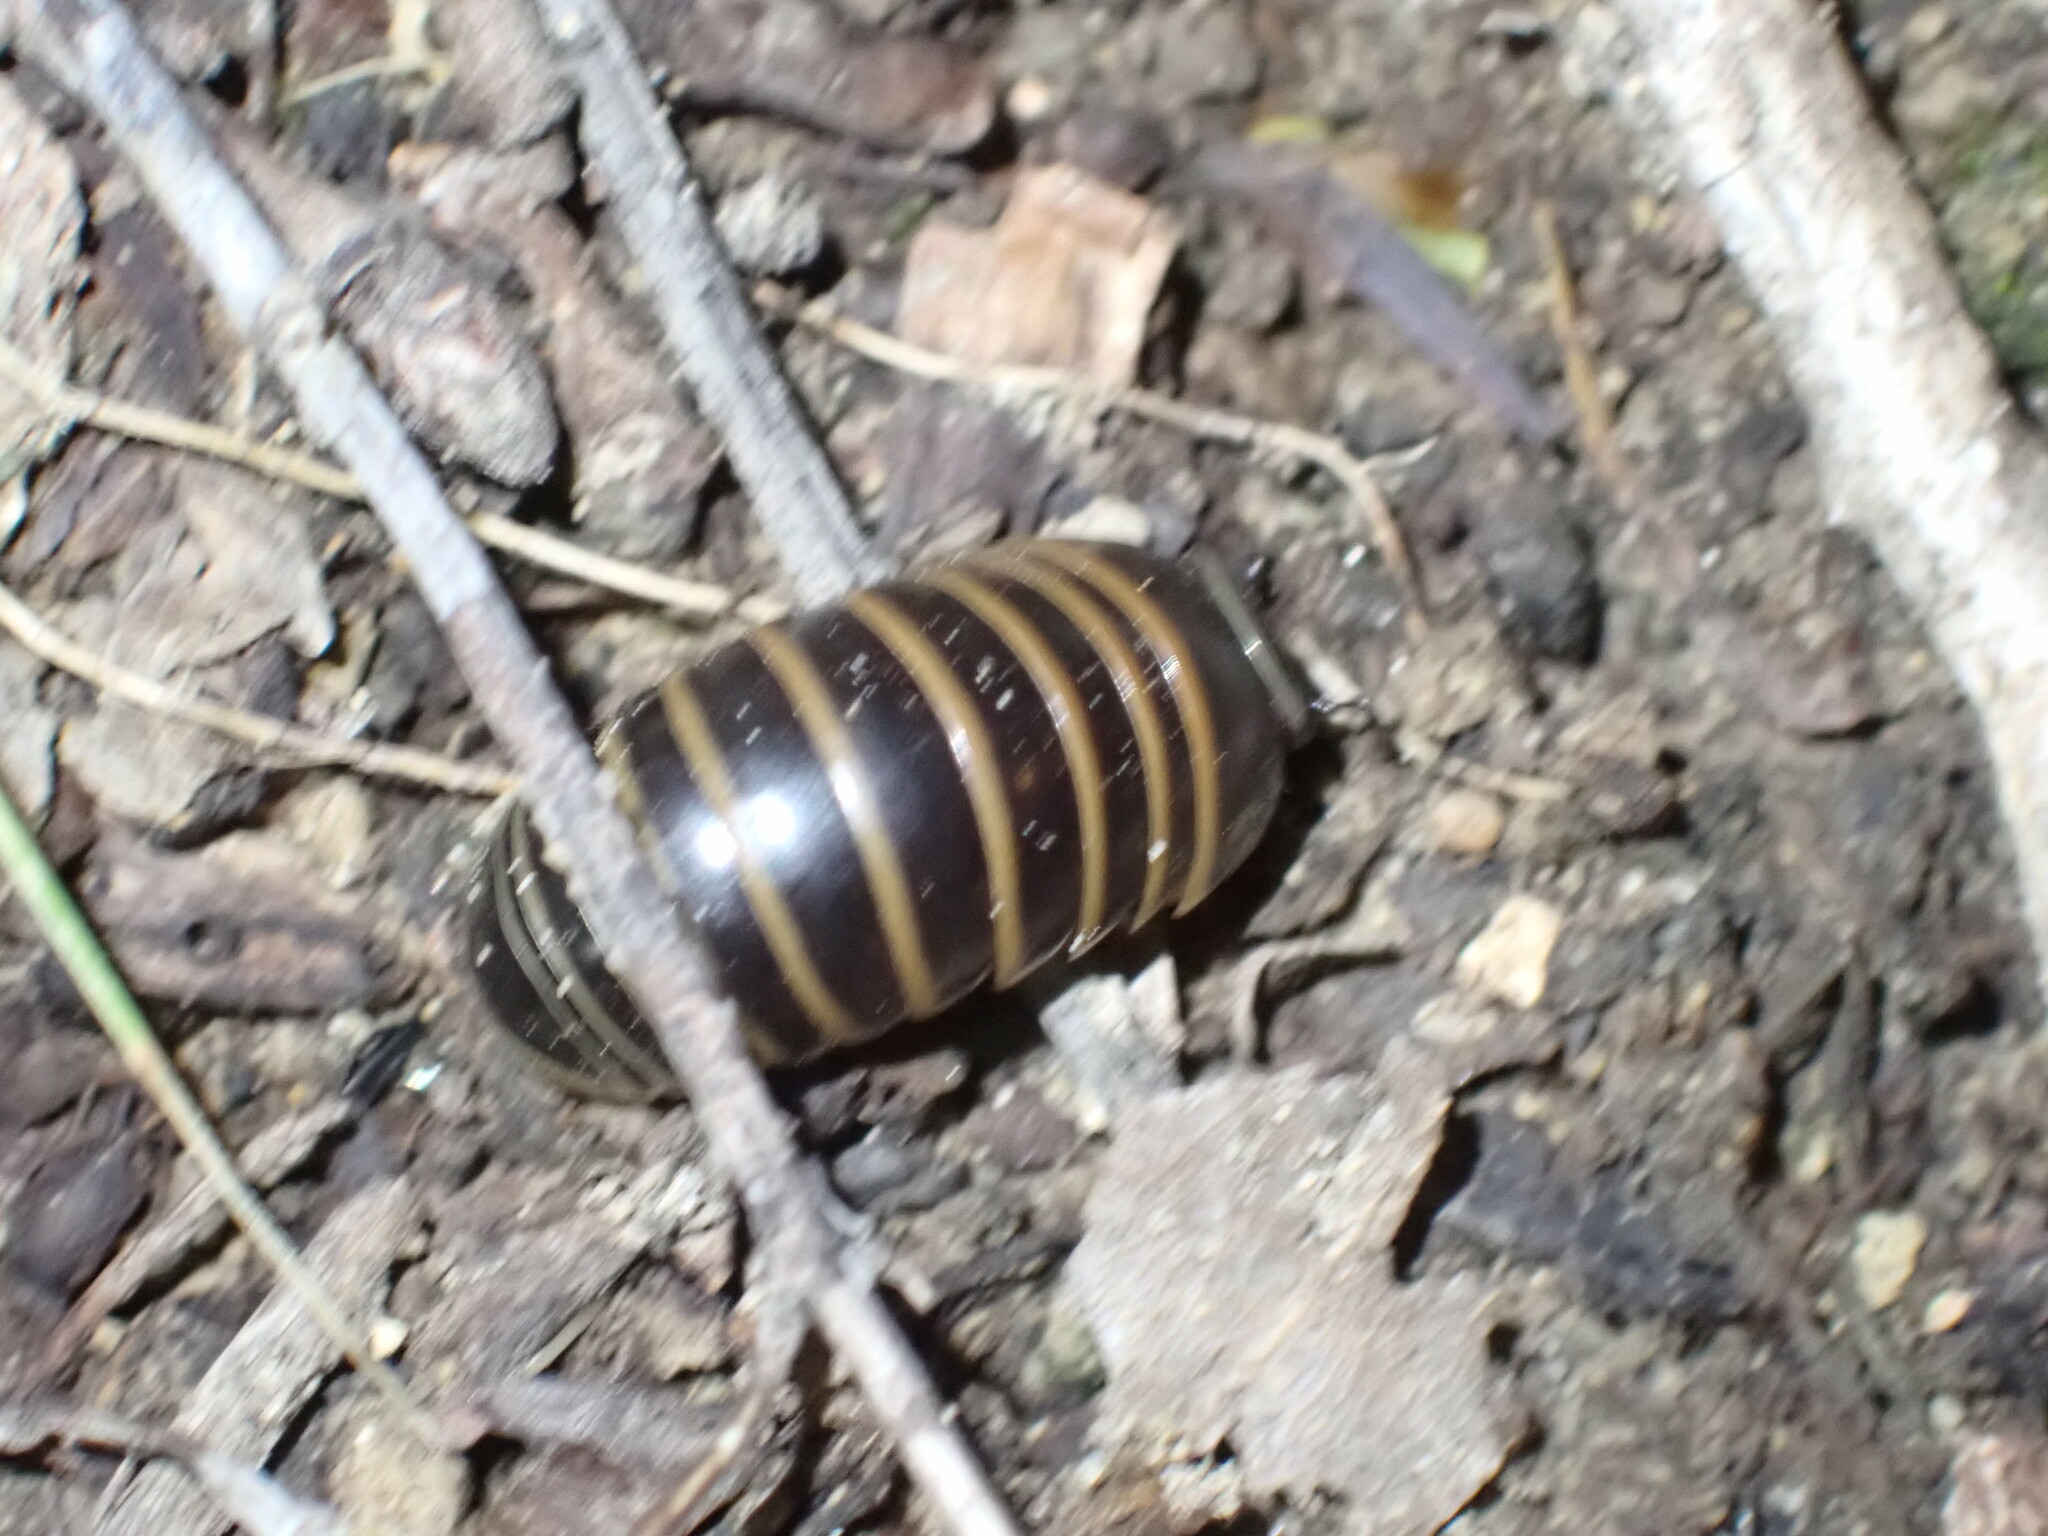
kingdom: Animalia
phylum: Arthropoda
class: Diplopoda
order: Glomerida
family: Glomeridae
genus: Glomeris
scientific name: Glomeris marginata
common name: Bordered pill millipede
